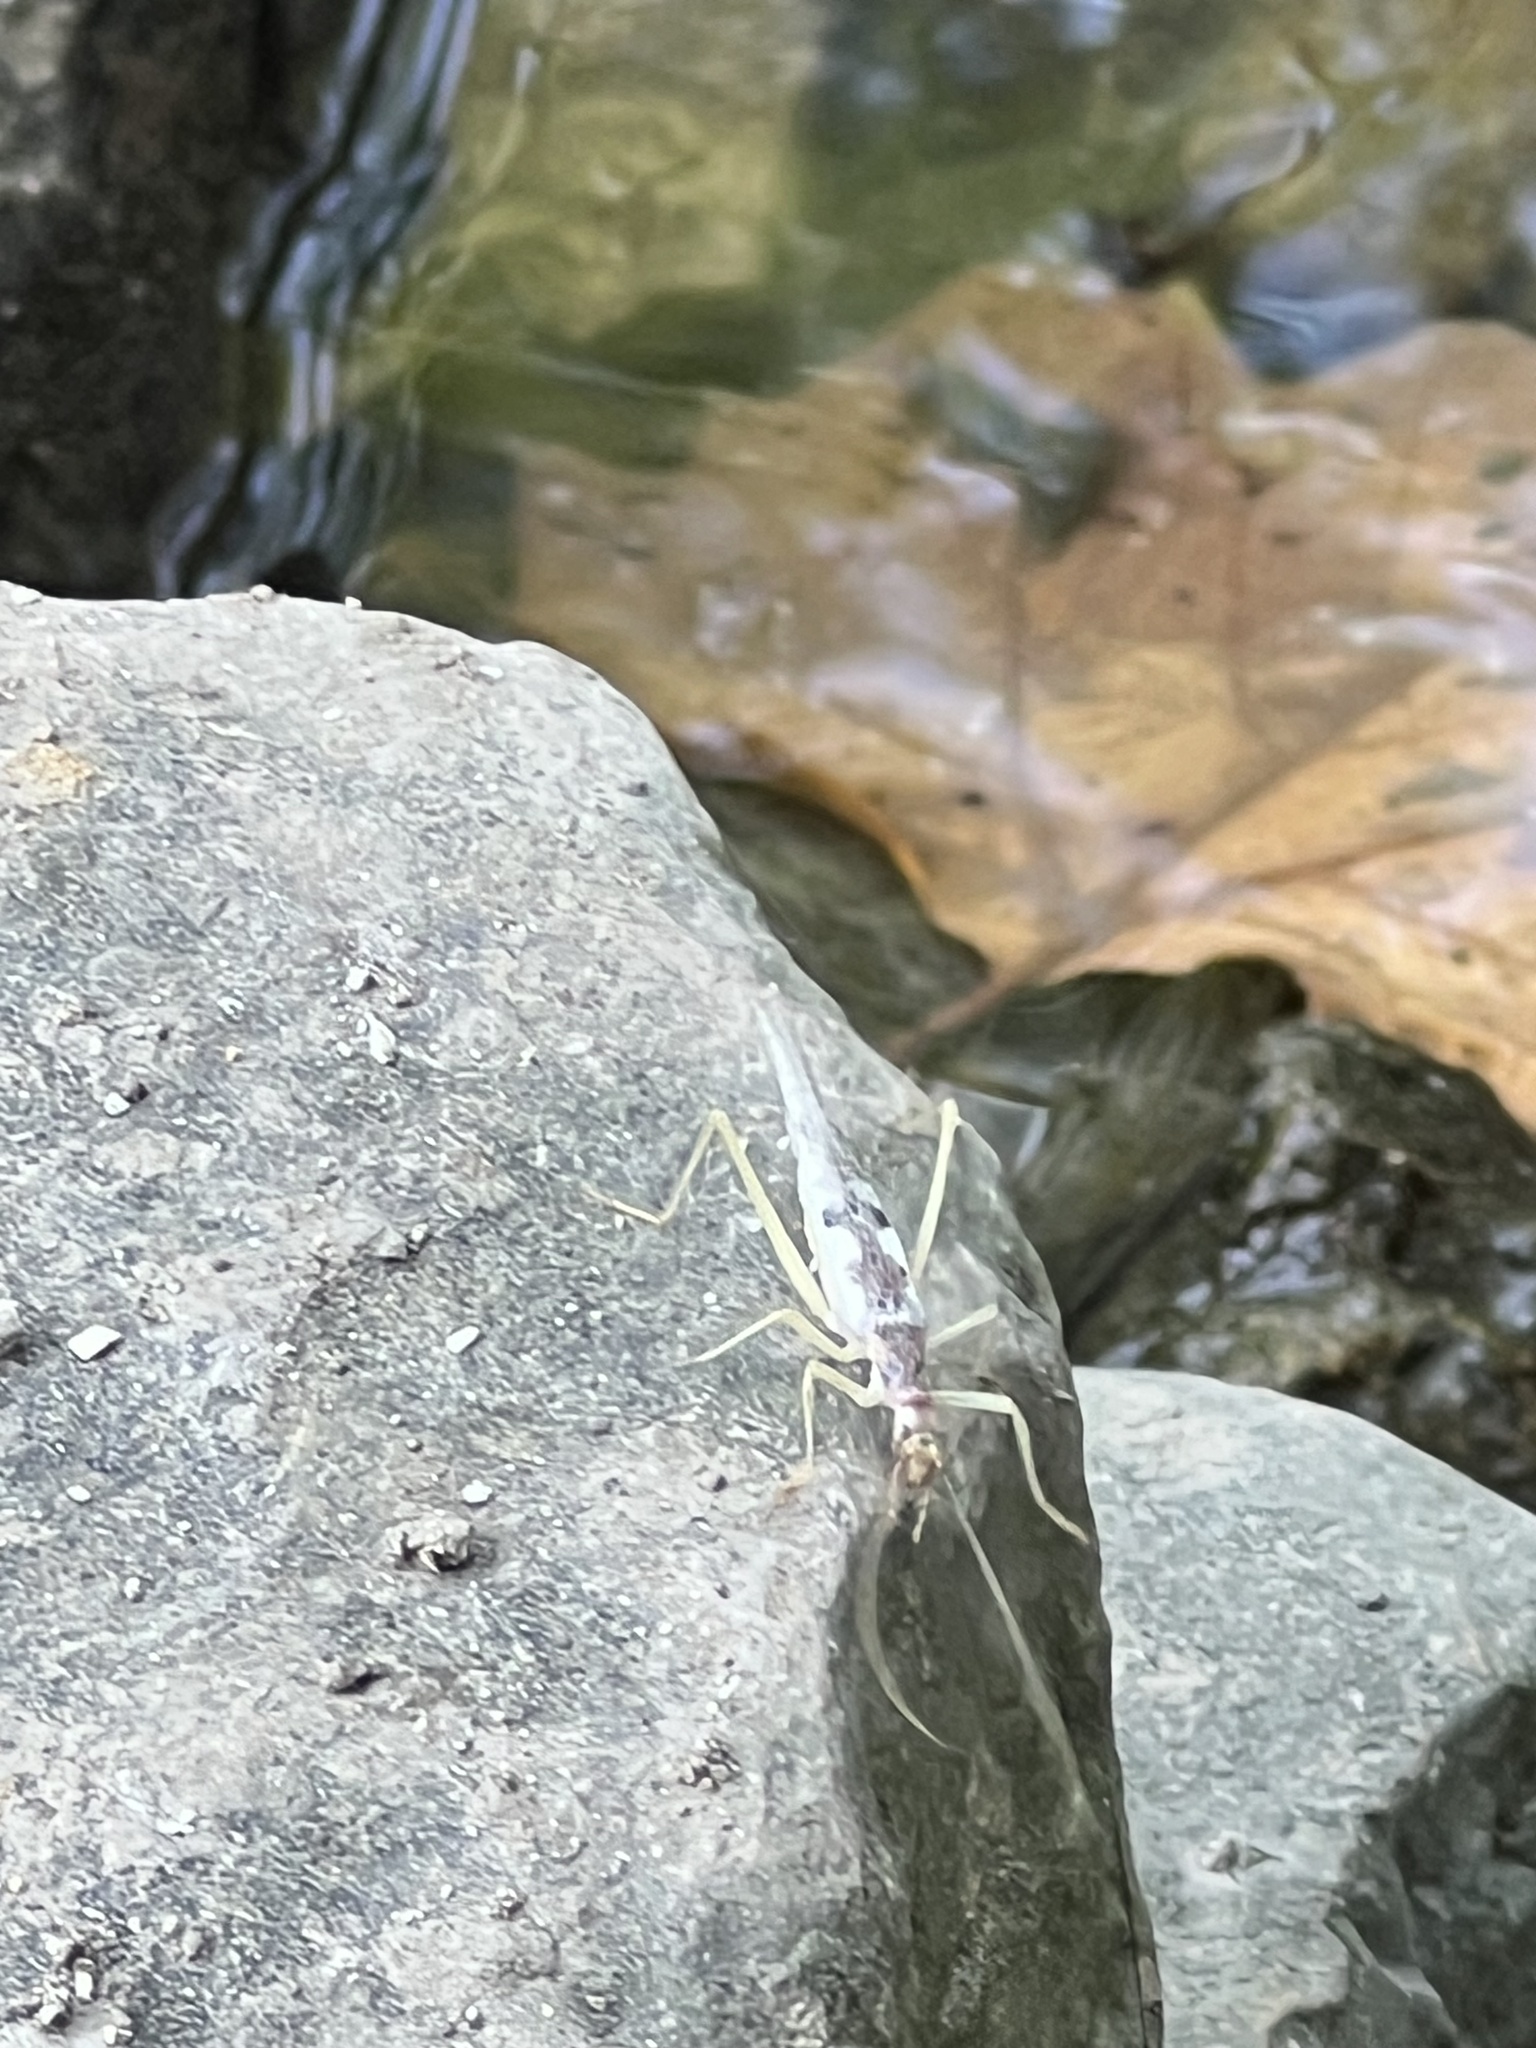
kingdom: Animalia
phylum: Arthropoda
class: Insecta
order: Orthoptera
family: Gryllidae
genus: Neoxabea
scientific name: Neoxabea bipunctata
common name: Two-spotted tree cricket
